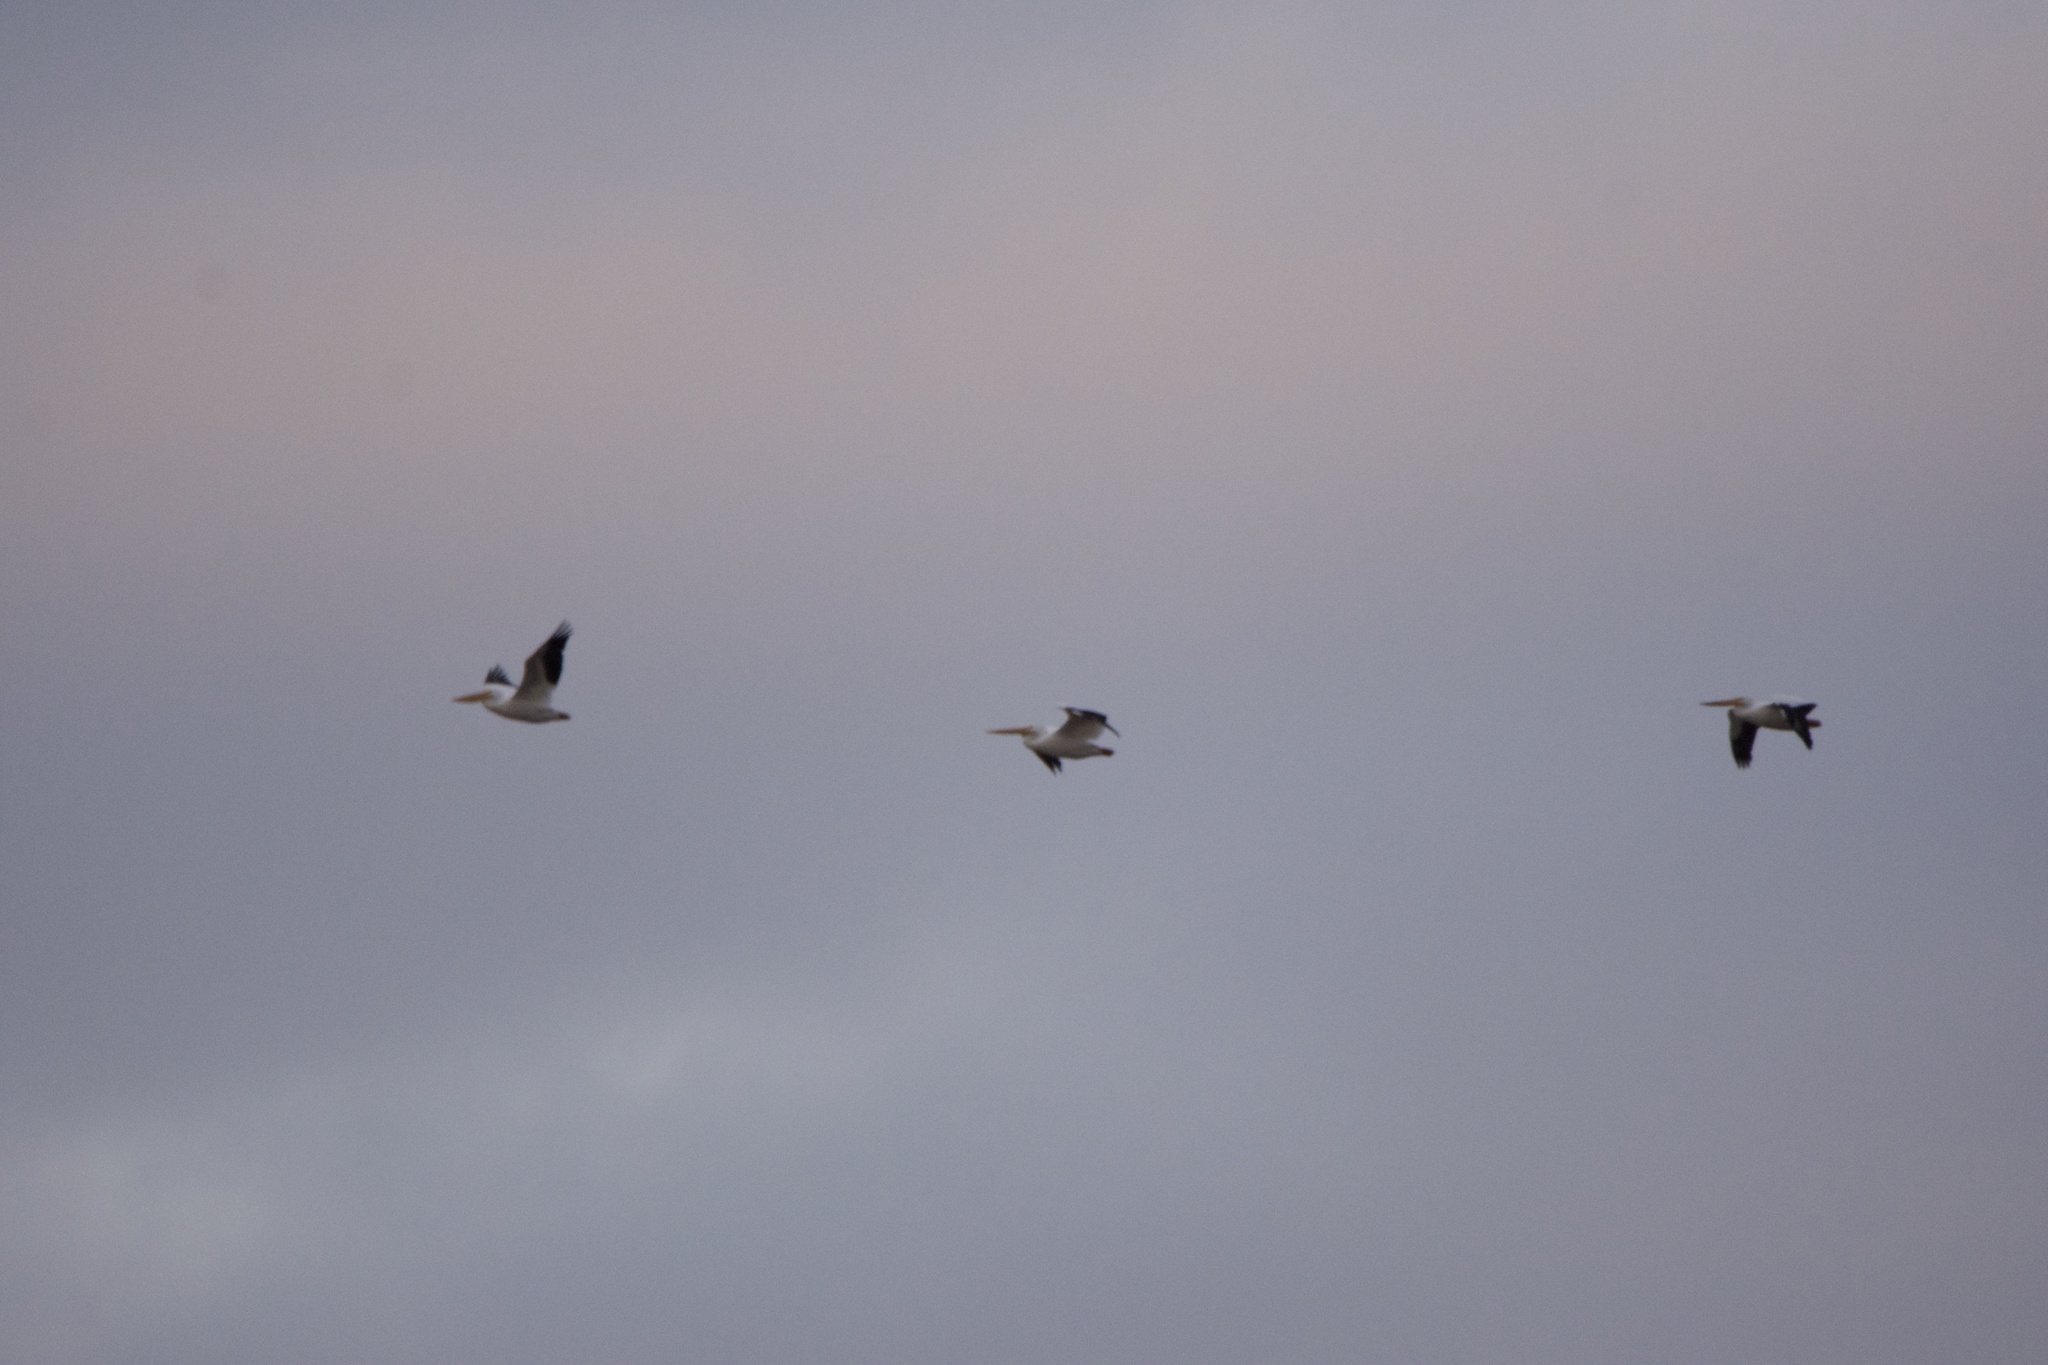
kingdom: Animalia
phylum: Chordata
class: Aves
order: Pelecaniformes
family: Pelecanidae
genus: Pelecanus
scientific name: Pelecanus erythrorhynchos
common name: American white pelican
